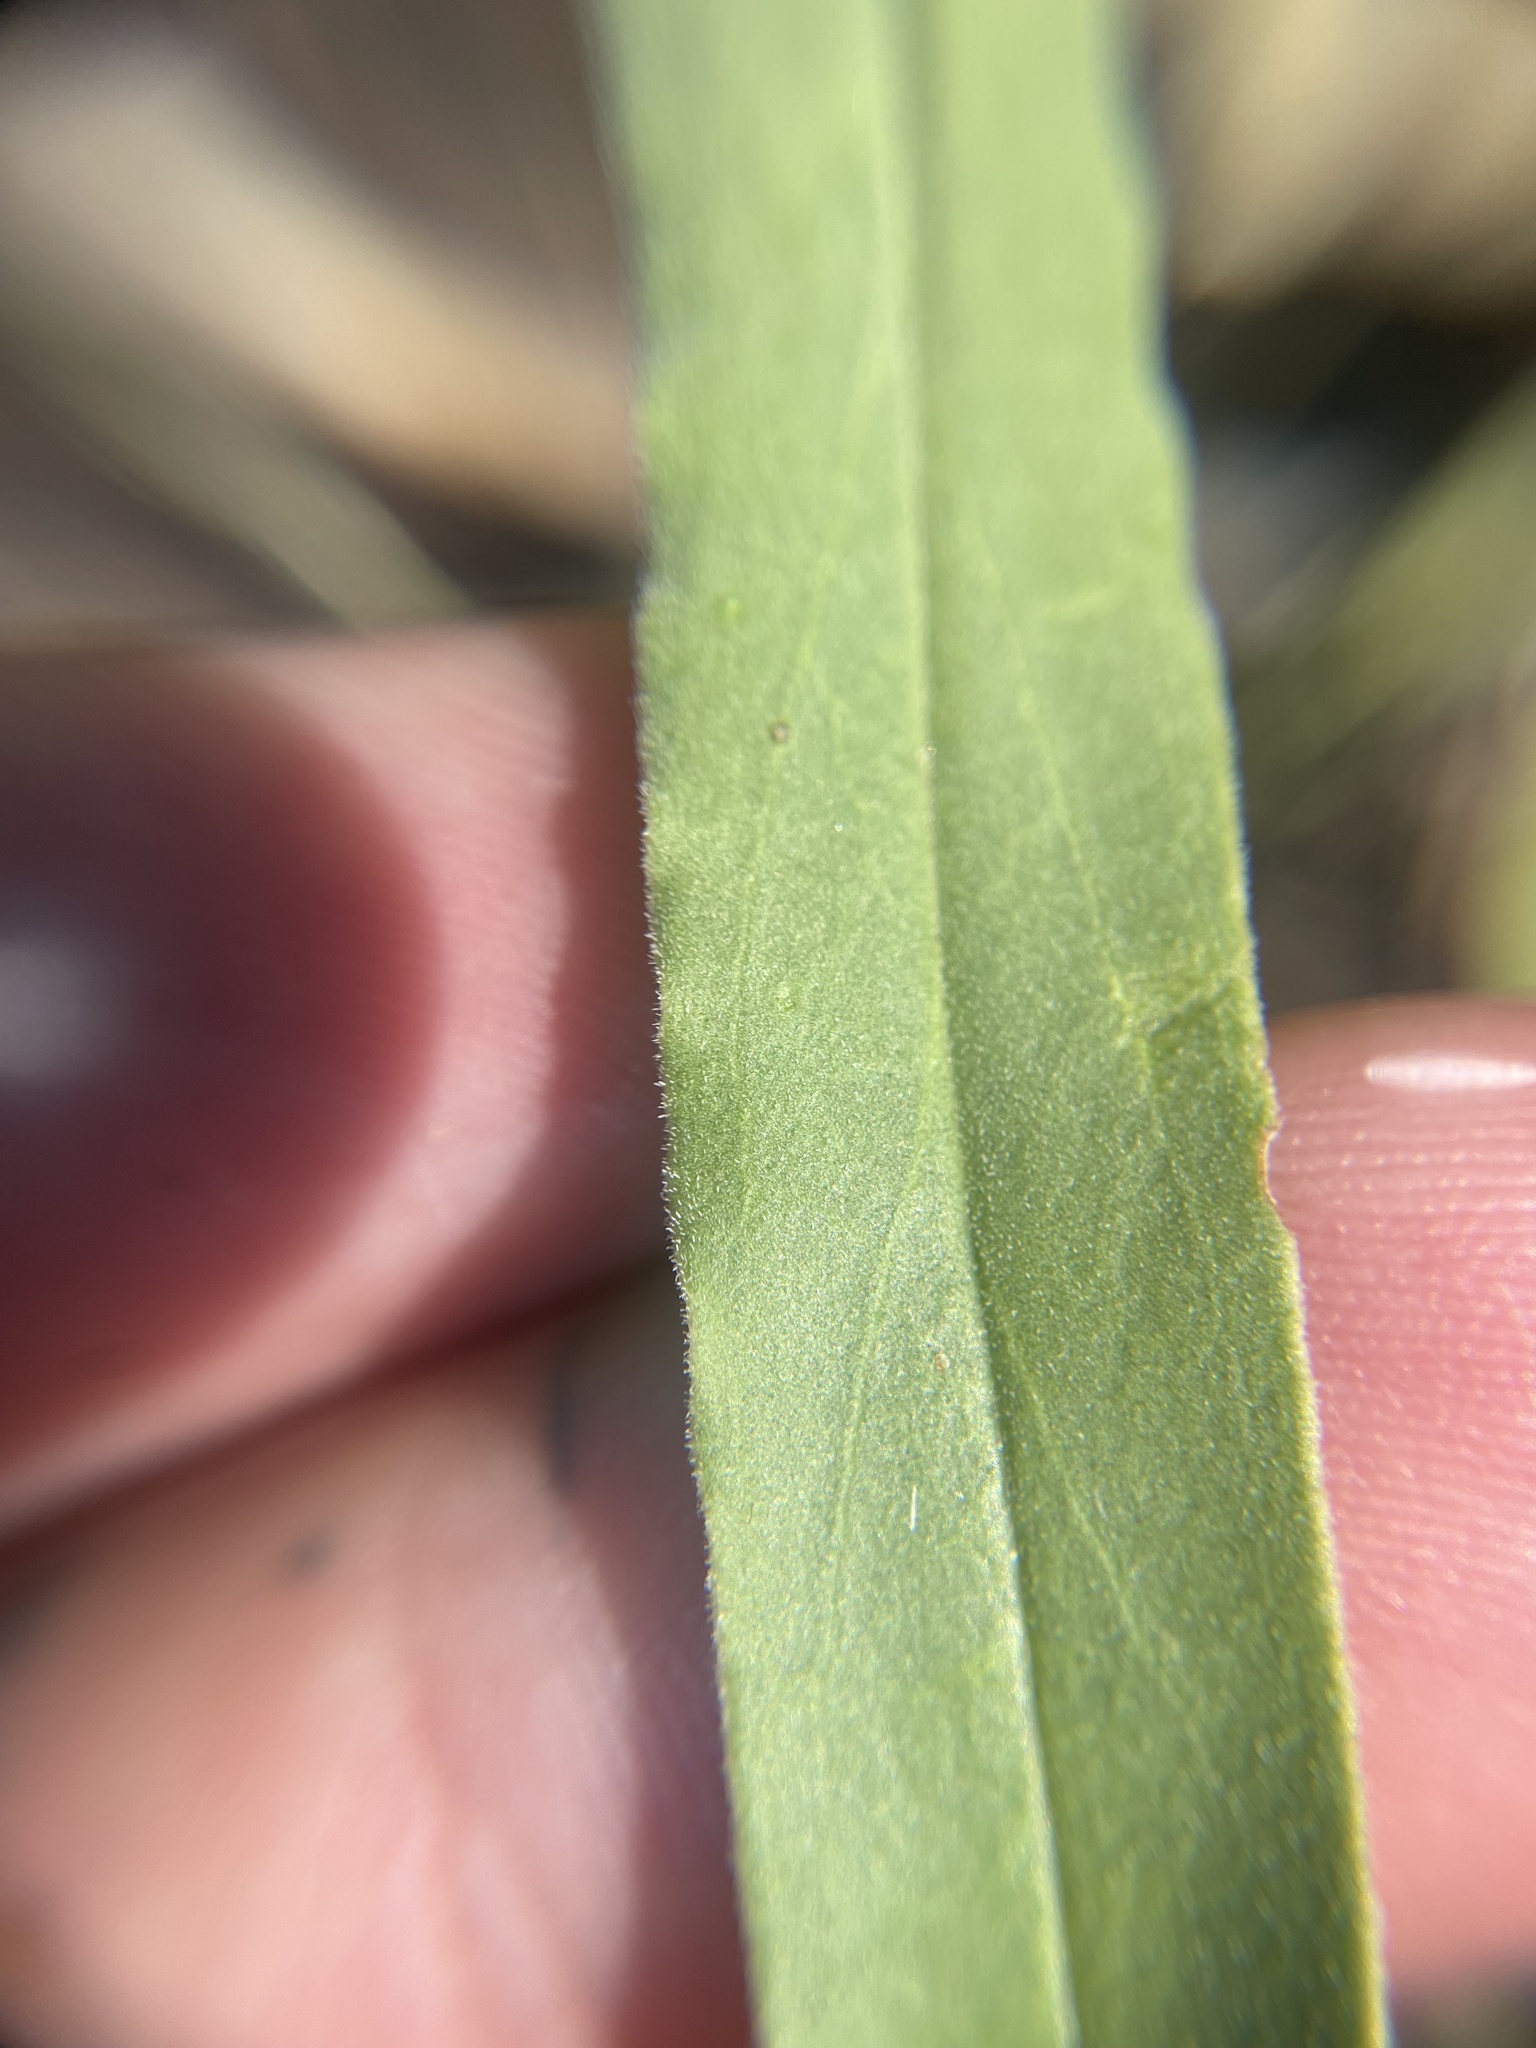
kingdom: Plantae
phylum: Tracheophyta
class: Magnoliopsida
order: Lamiales
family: Plantaginaceae
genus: Penstemon
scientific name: Penstemon gracilis
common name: Slender beardtongue
